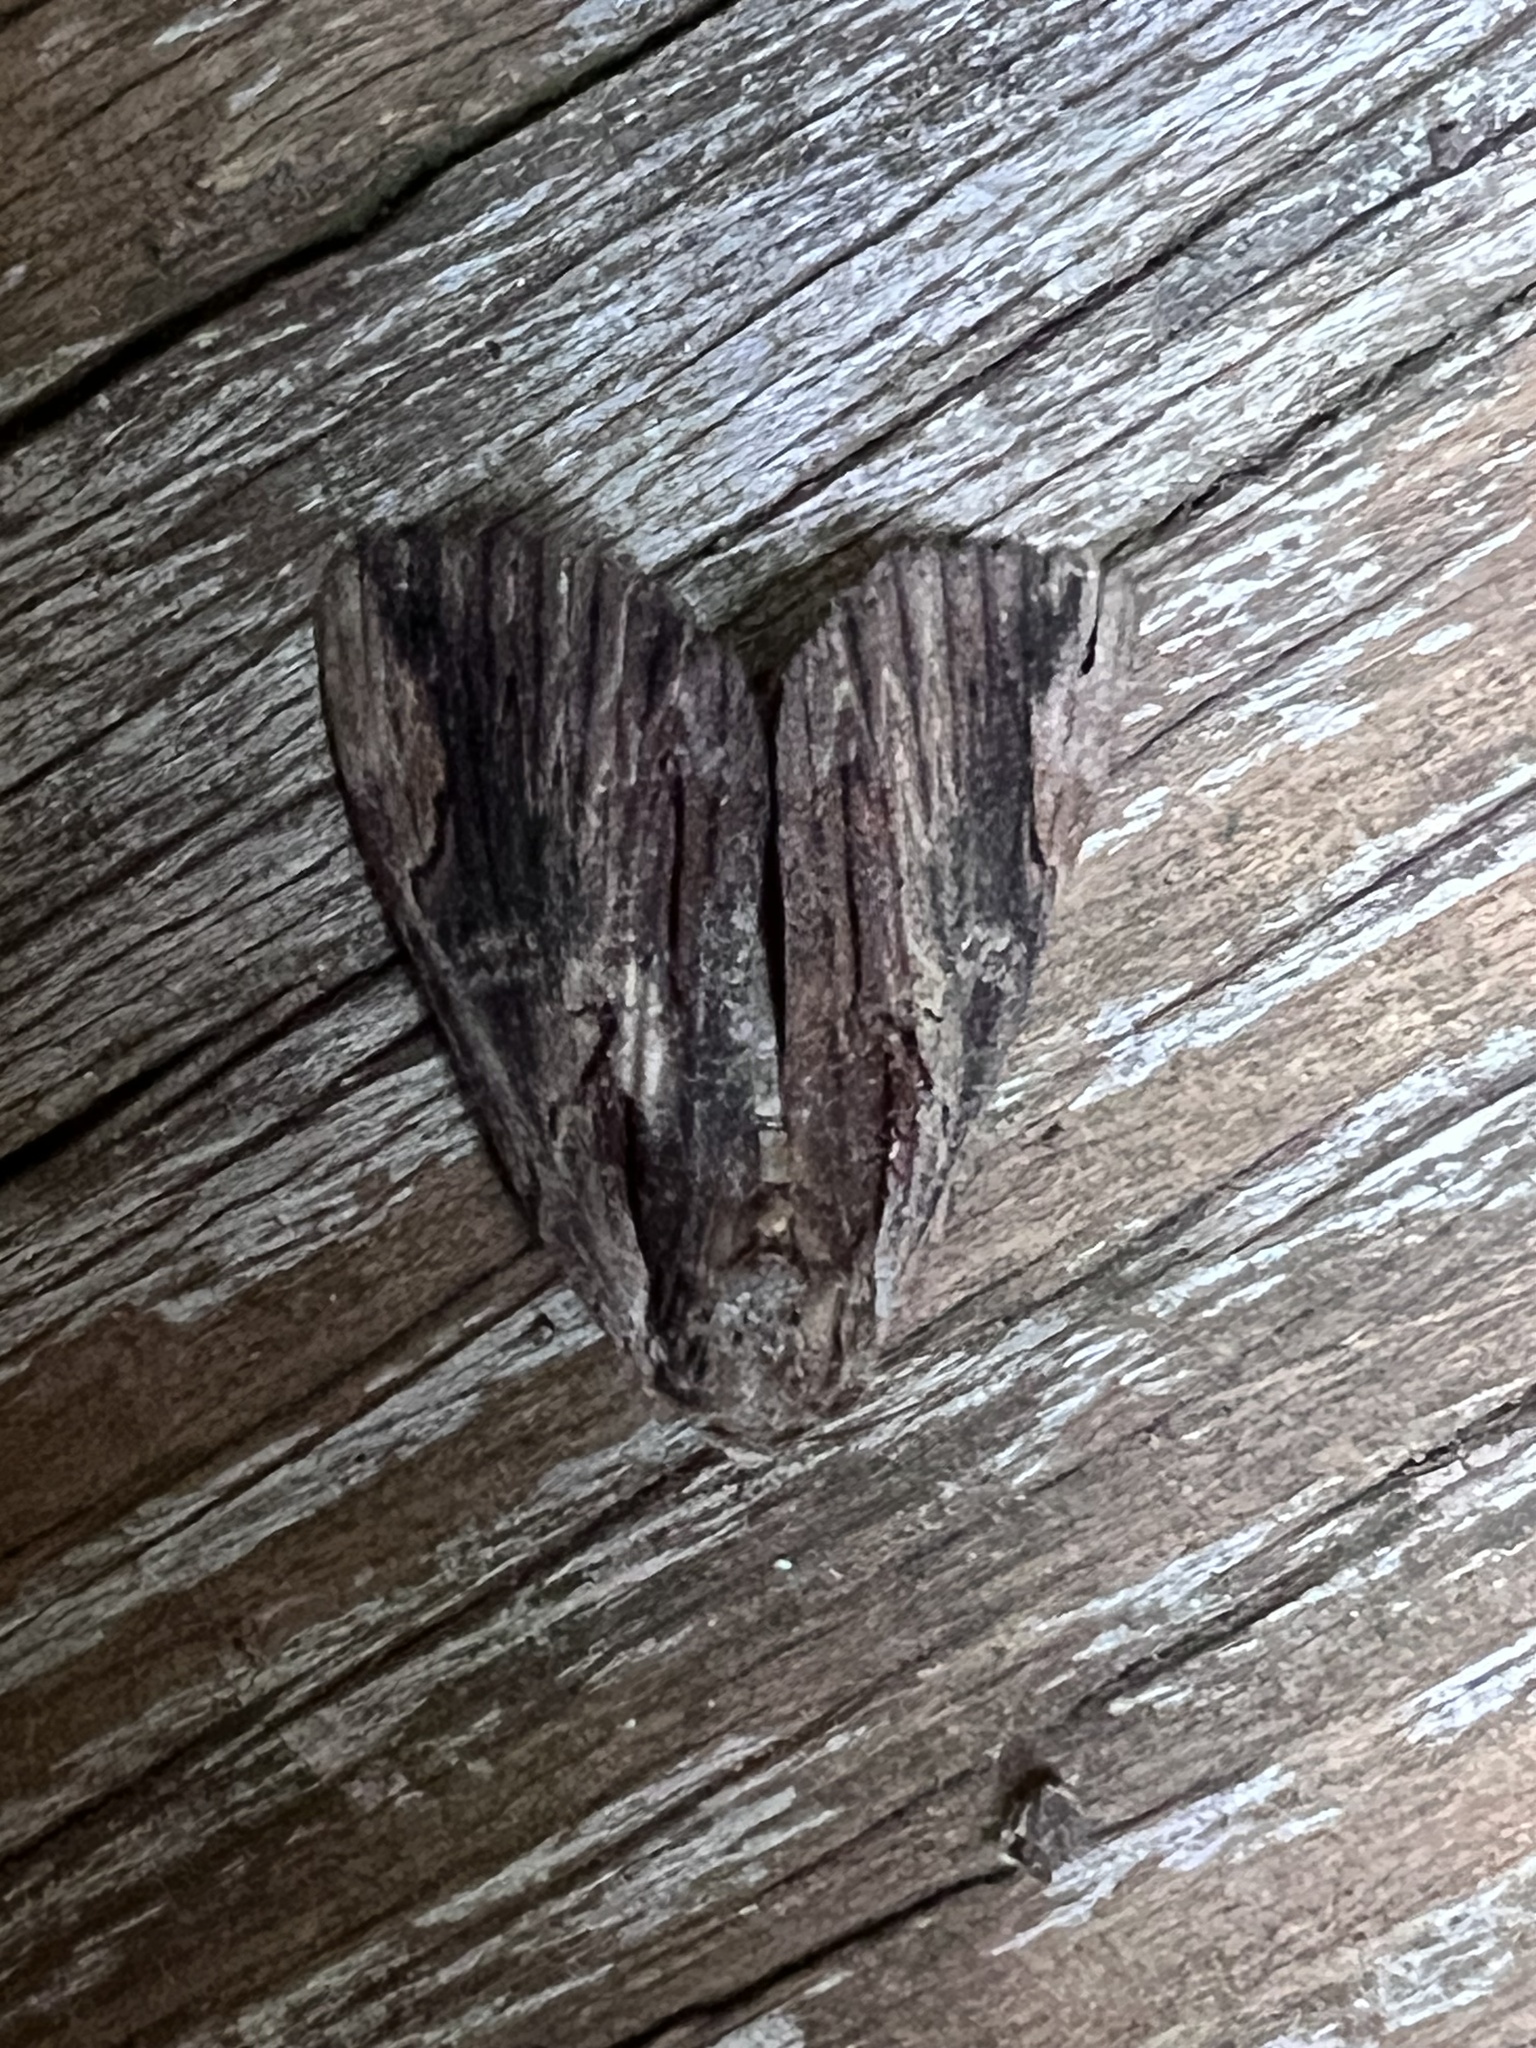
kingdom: Animalia
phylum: Arthropoda
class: Insecta
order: Lepidoptera
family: Erebidae
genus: Catocala
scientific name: Catocala ultronia
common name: Ultronia underwing
